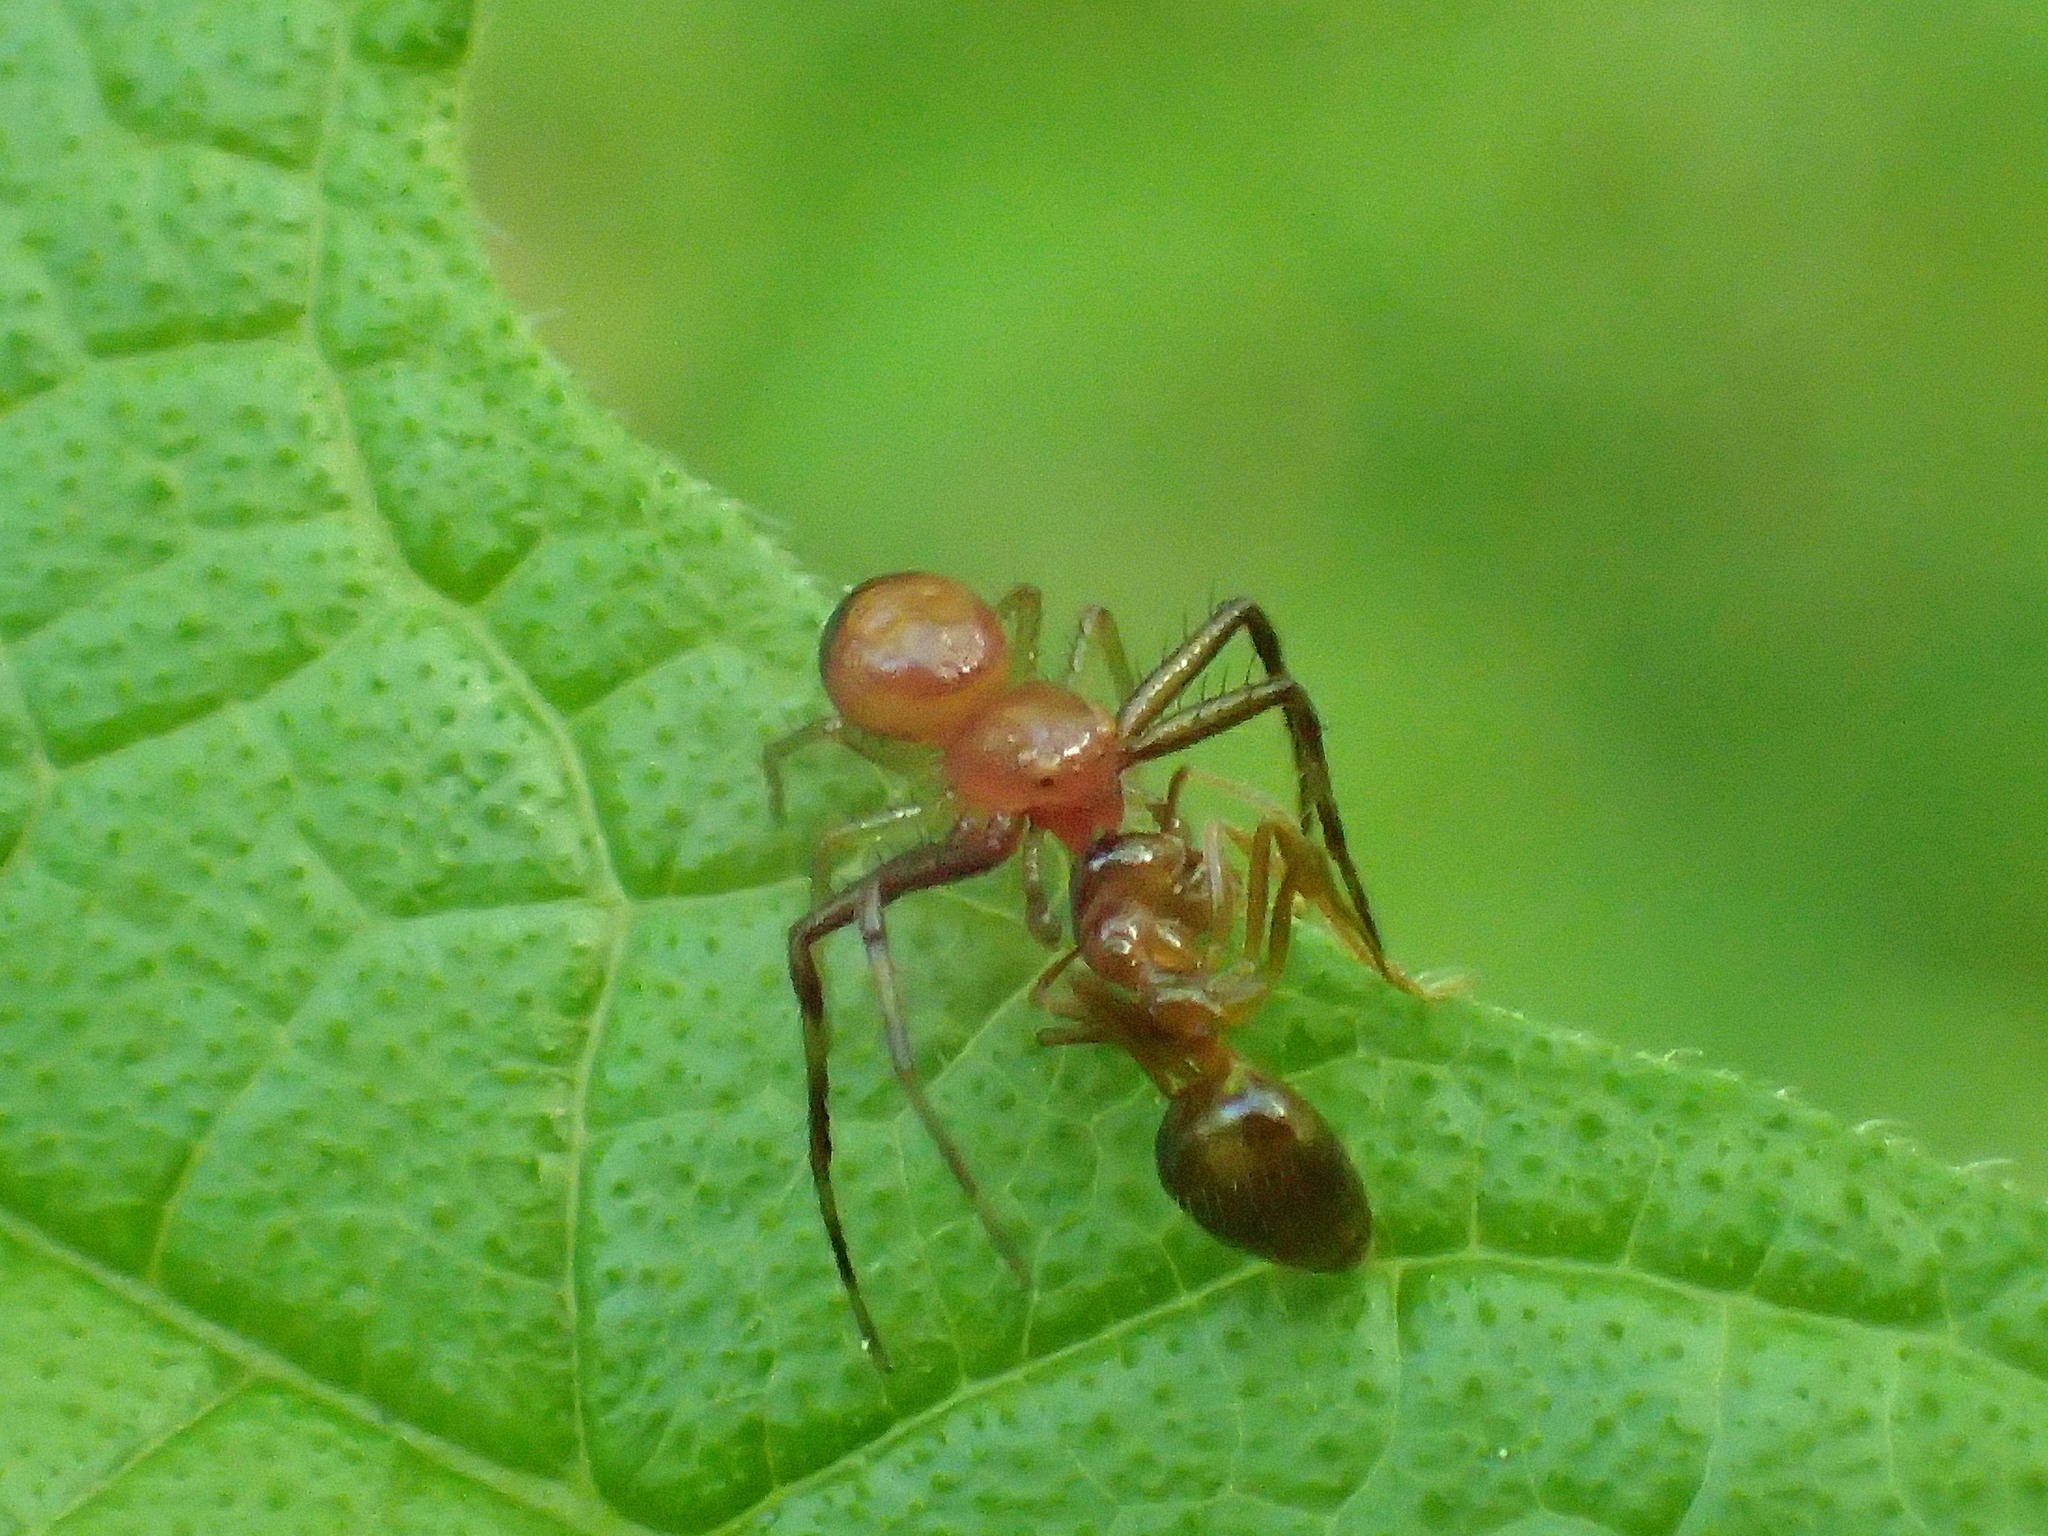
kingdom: Animalia
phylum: Arthropoda
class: Arachnida
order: Araneae
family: Thomisidae
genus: Synema
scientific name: Synema parvulum
